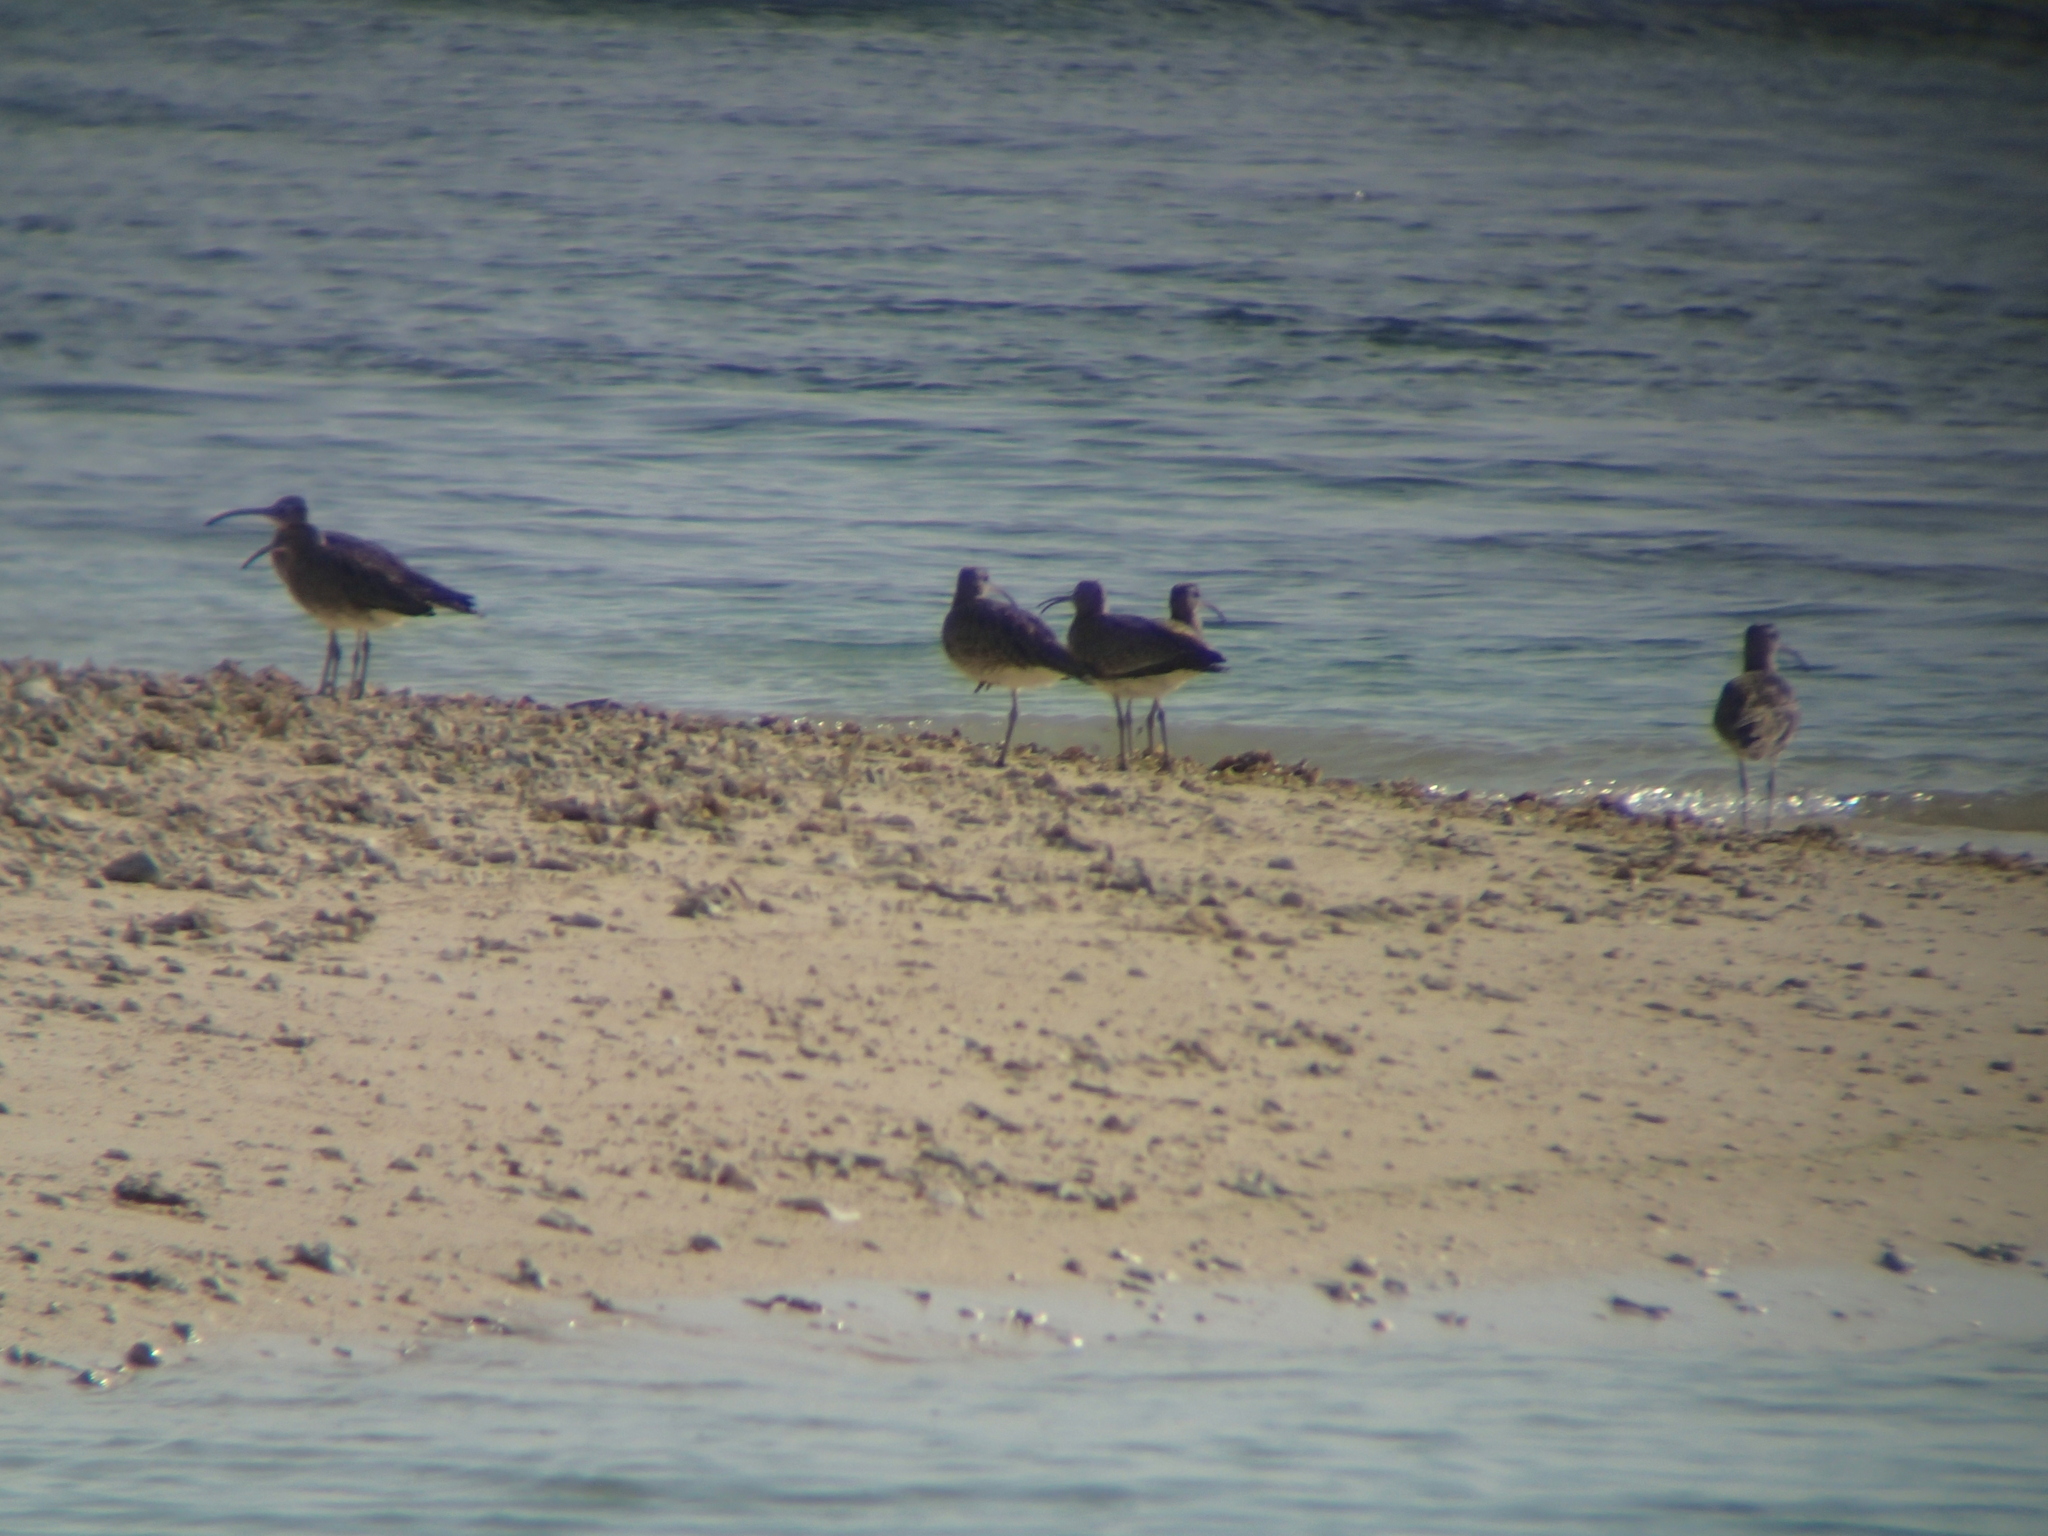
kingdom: Animalia
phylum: Chordata
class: Aves
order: Charadriiformes
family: Scolopacidae
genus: Numenius
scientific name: Numenius phaeopus
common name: Whimbrel
